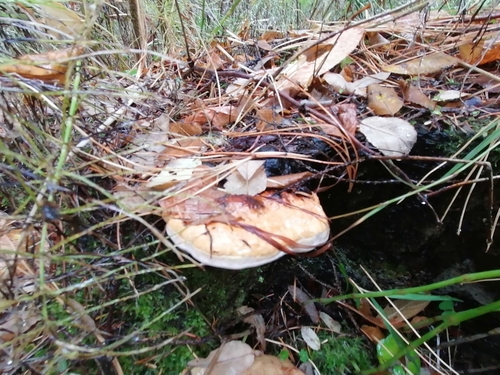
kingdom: Fungi
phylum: Basidiomycota
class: Agaricomycetes
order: Polyporales
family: Fomitopsidaceae
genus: Fomitopsis
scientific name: Fomitopsis pinicola
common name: Red-belted bracket
